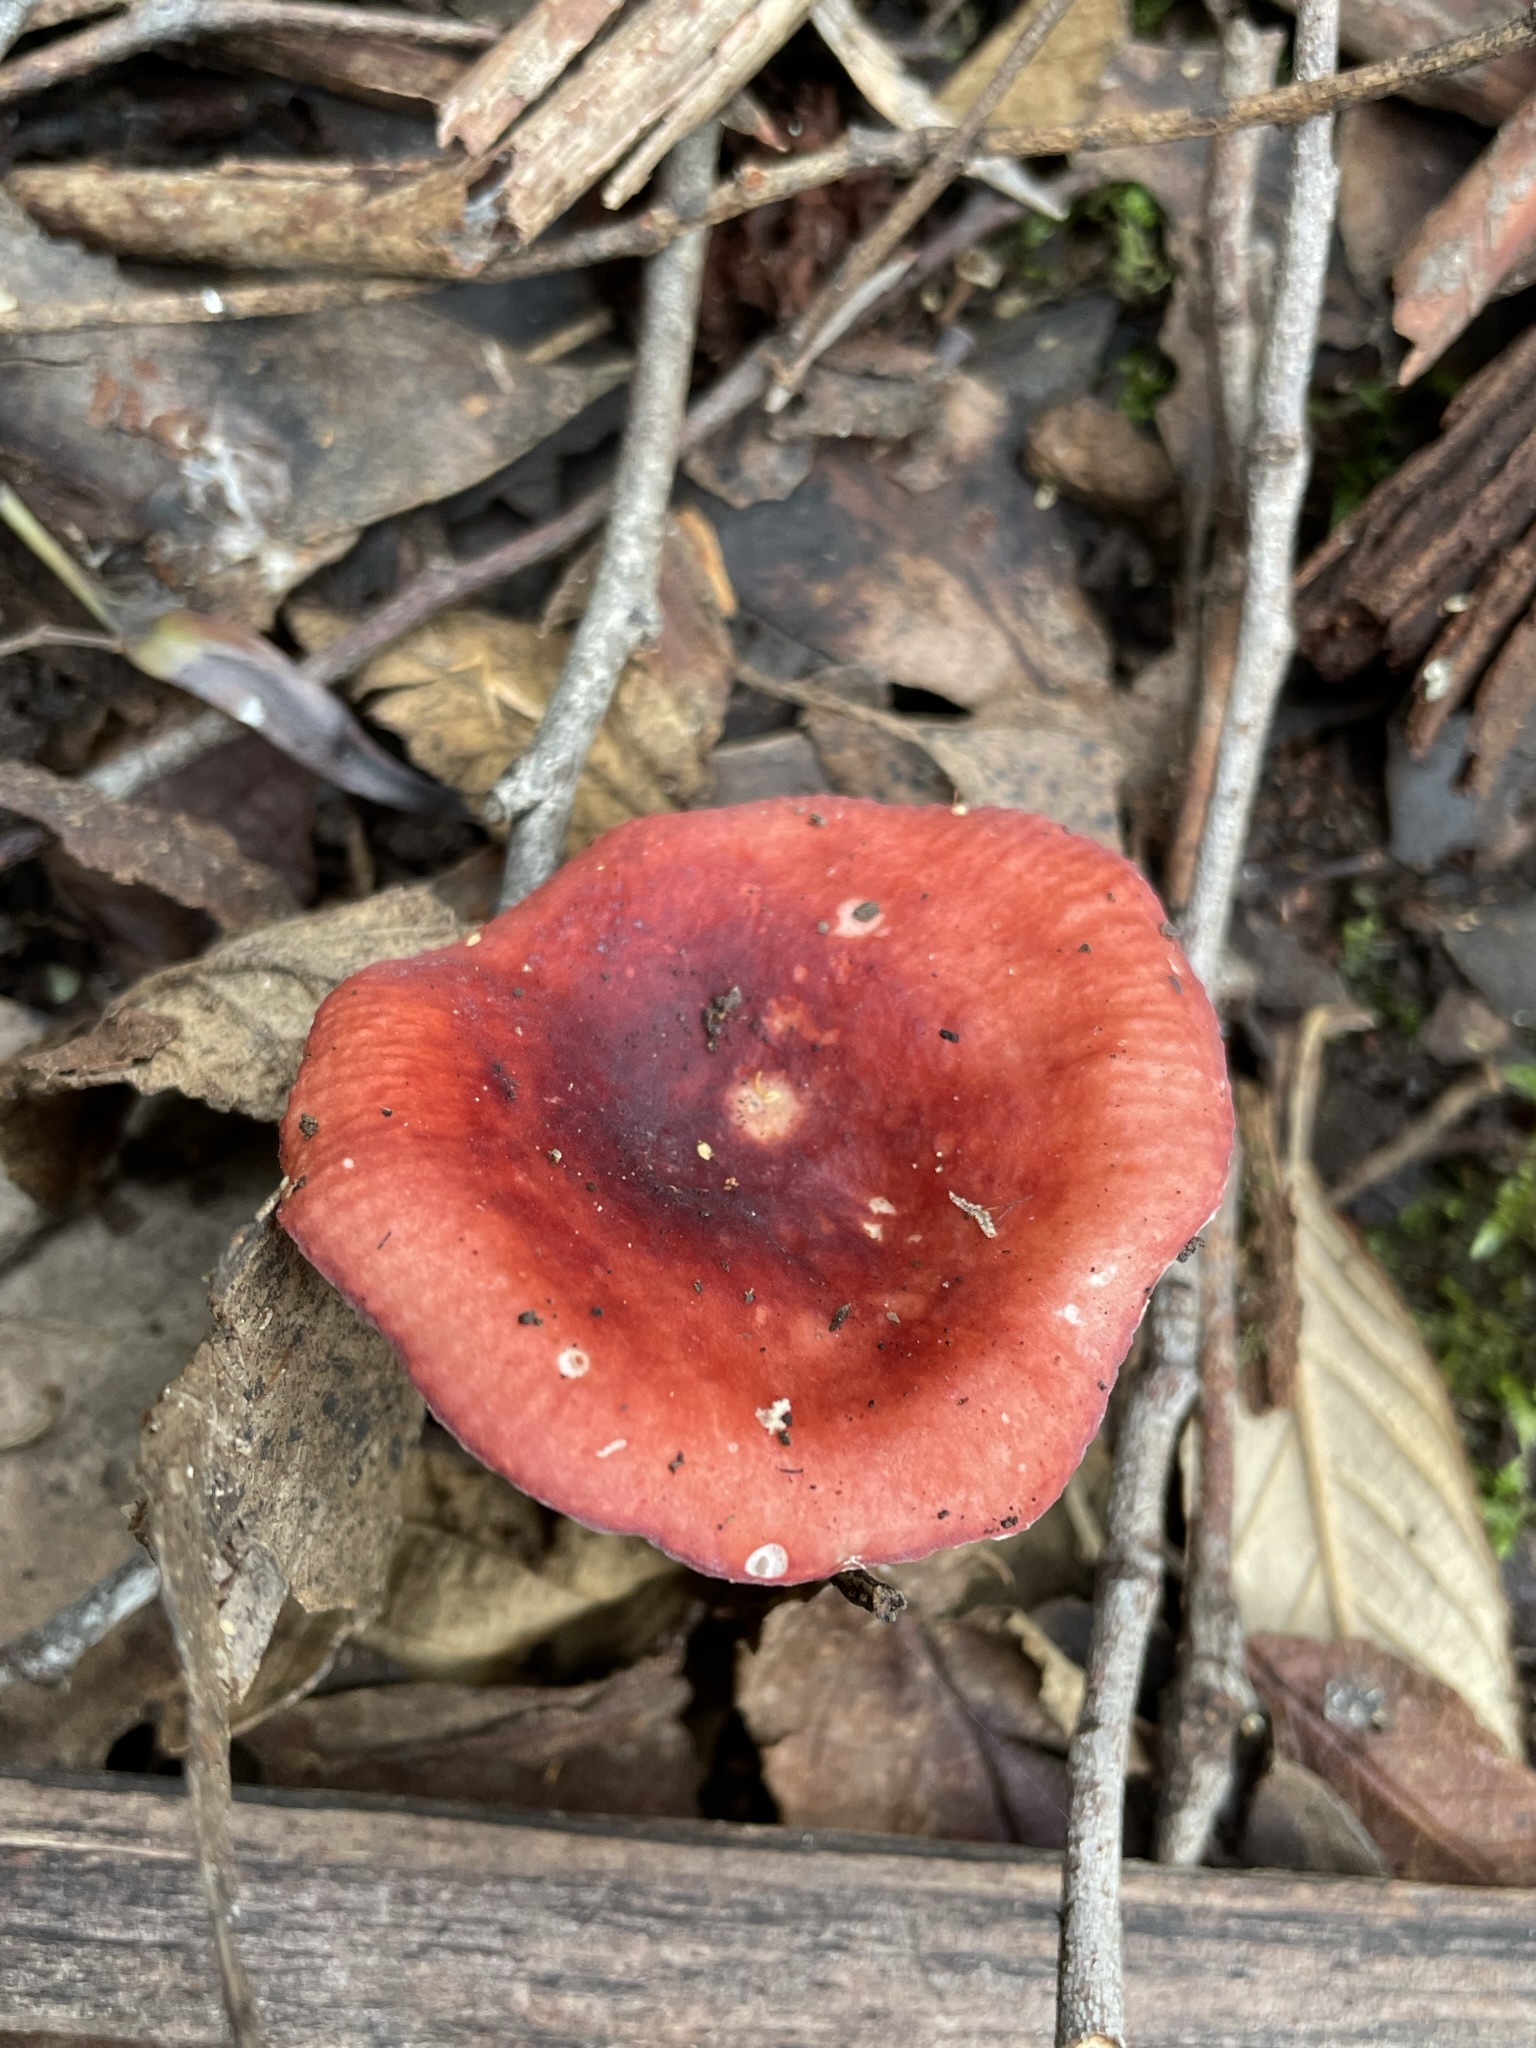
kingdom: Fungi
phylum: Basidiomycota
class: Agaricomycetes
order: Russulales
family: Russulaceae
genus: Russula
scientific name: Russula persanguinea
